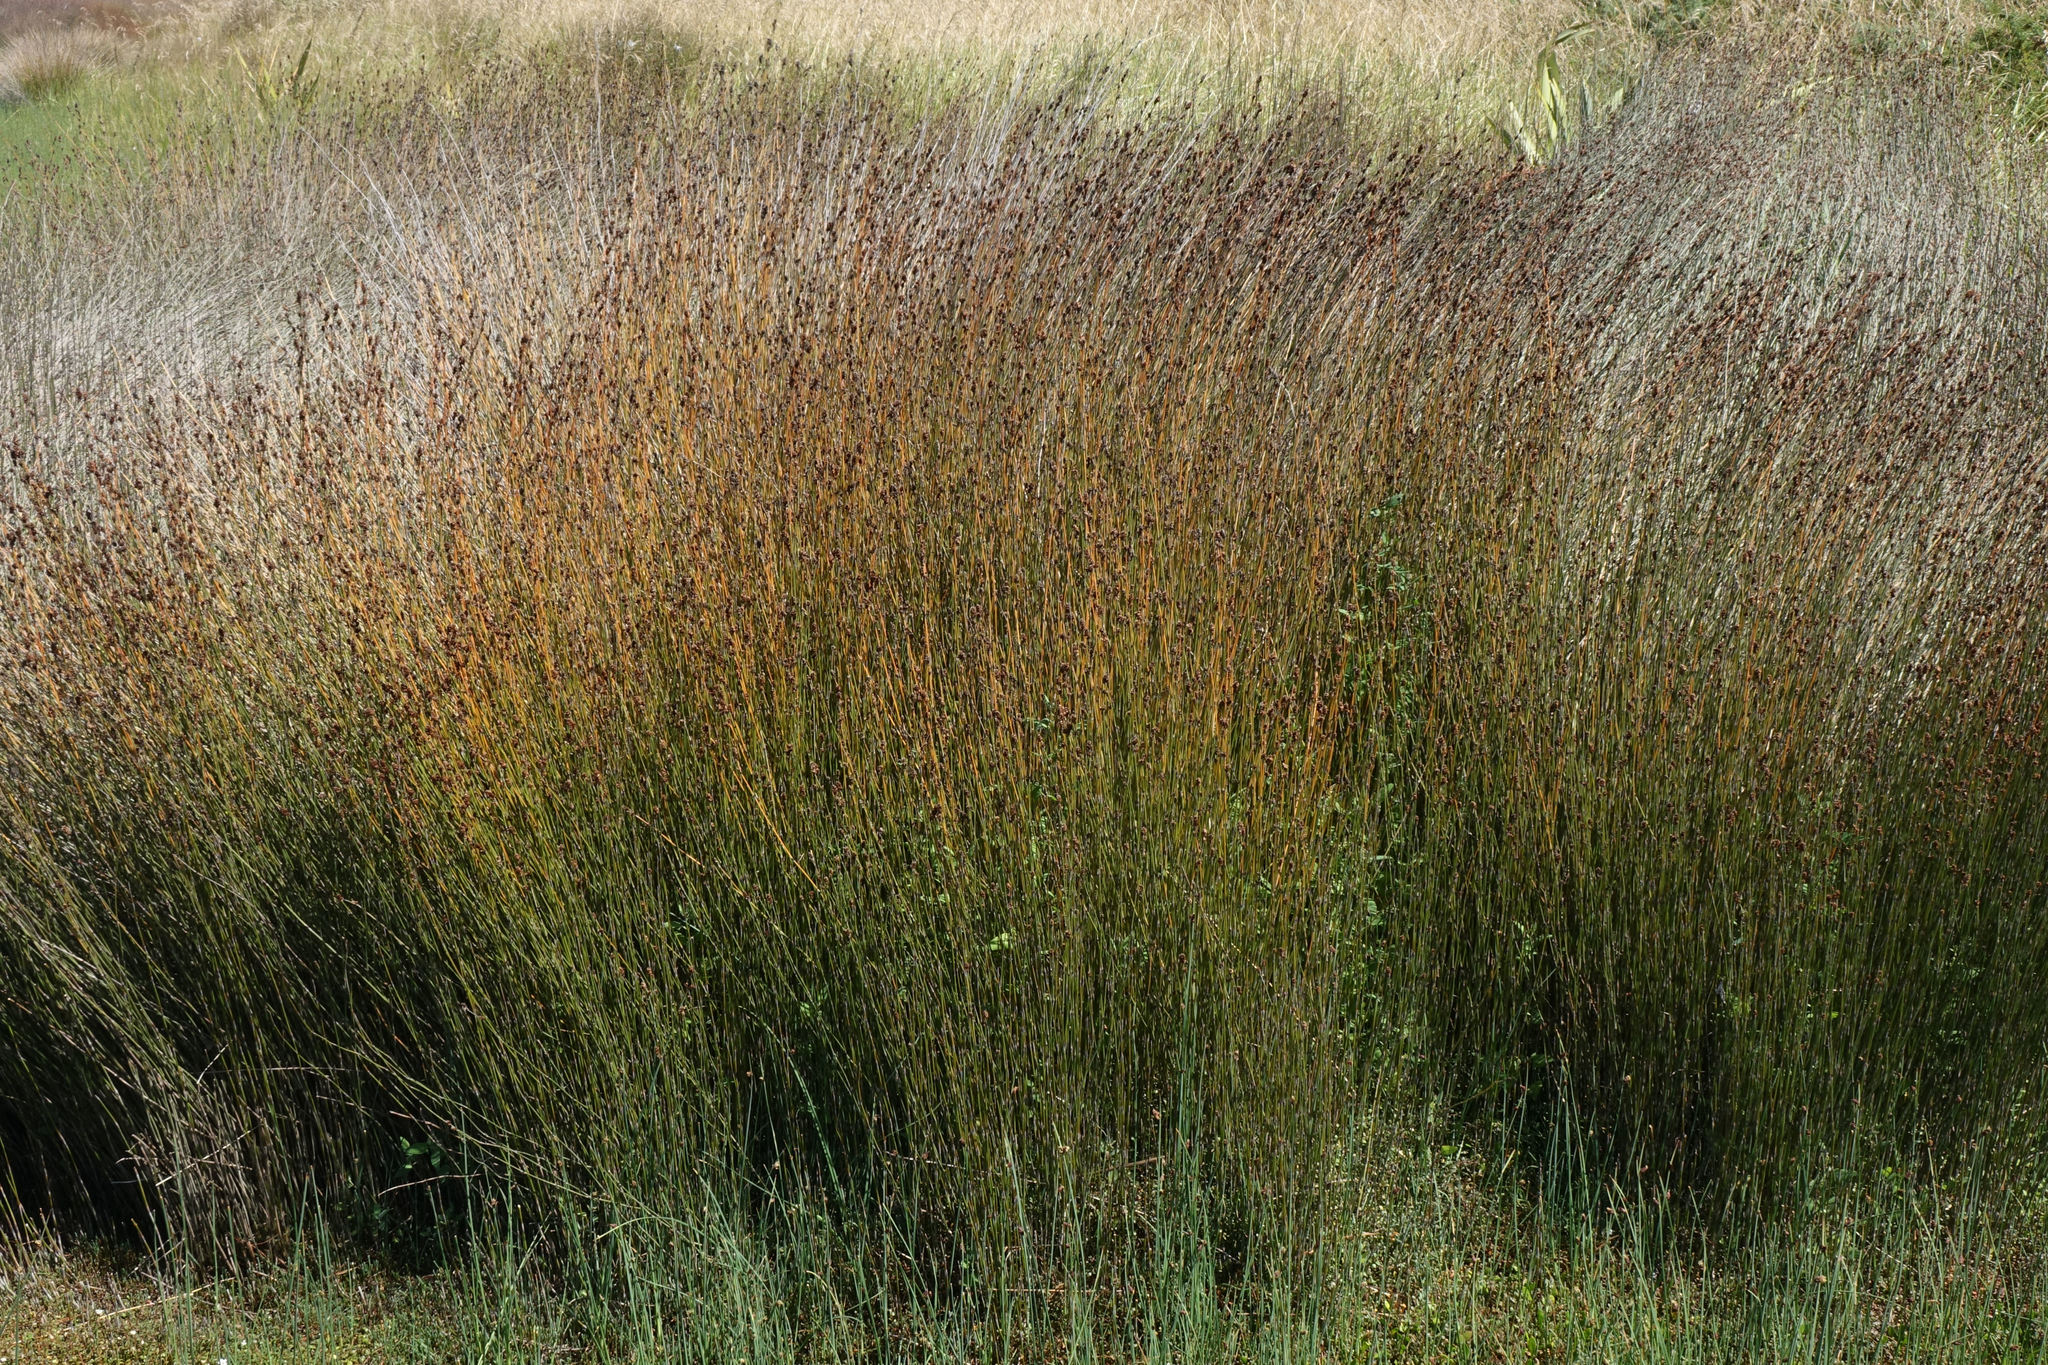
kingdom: Plantae
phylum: Tracheophyta
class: Liliopsida
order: Poales
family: Restionaceae
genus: Apodasmia
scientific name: Apodasmia similis
